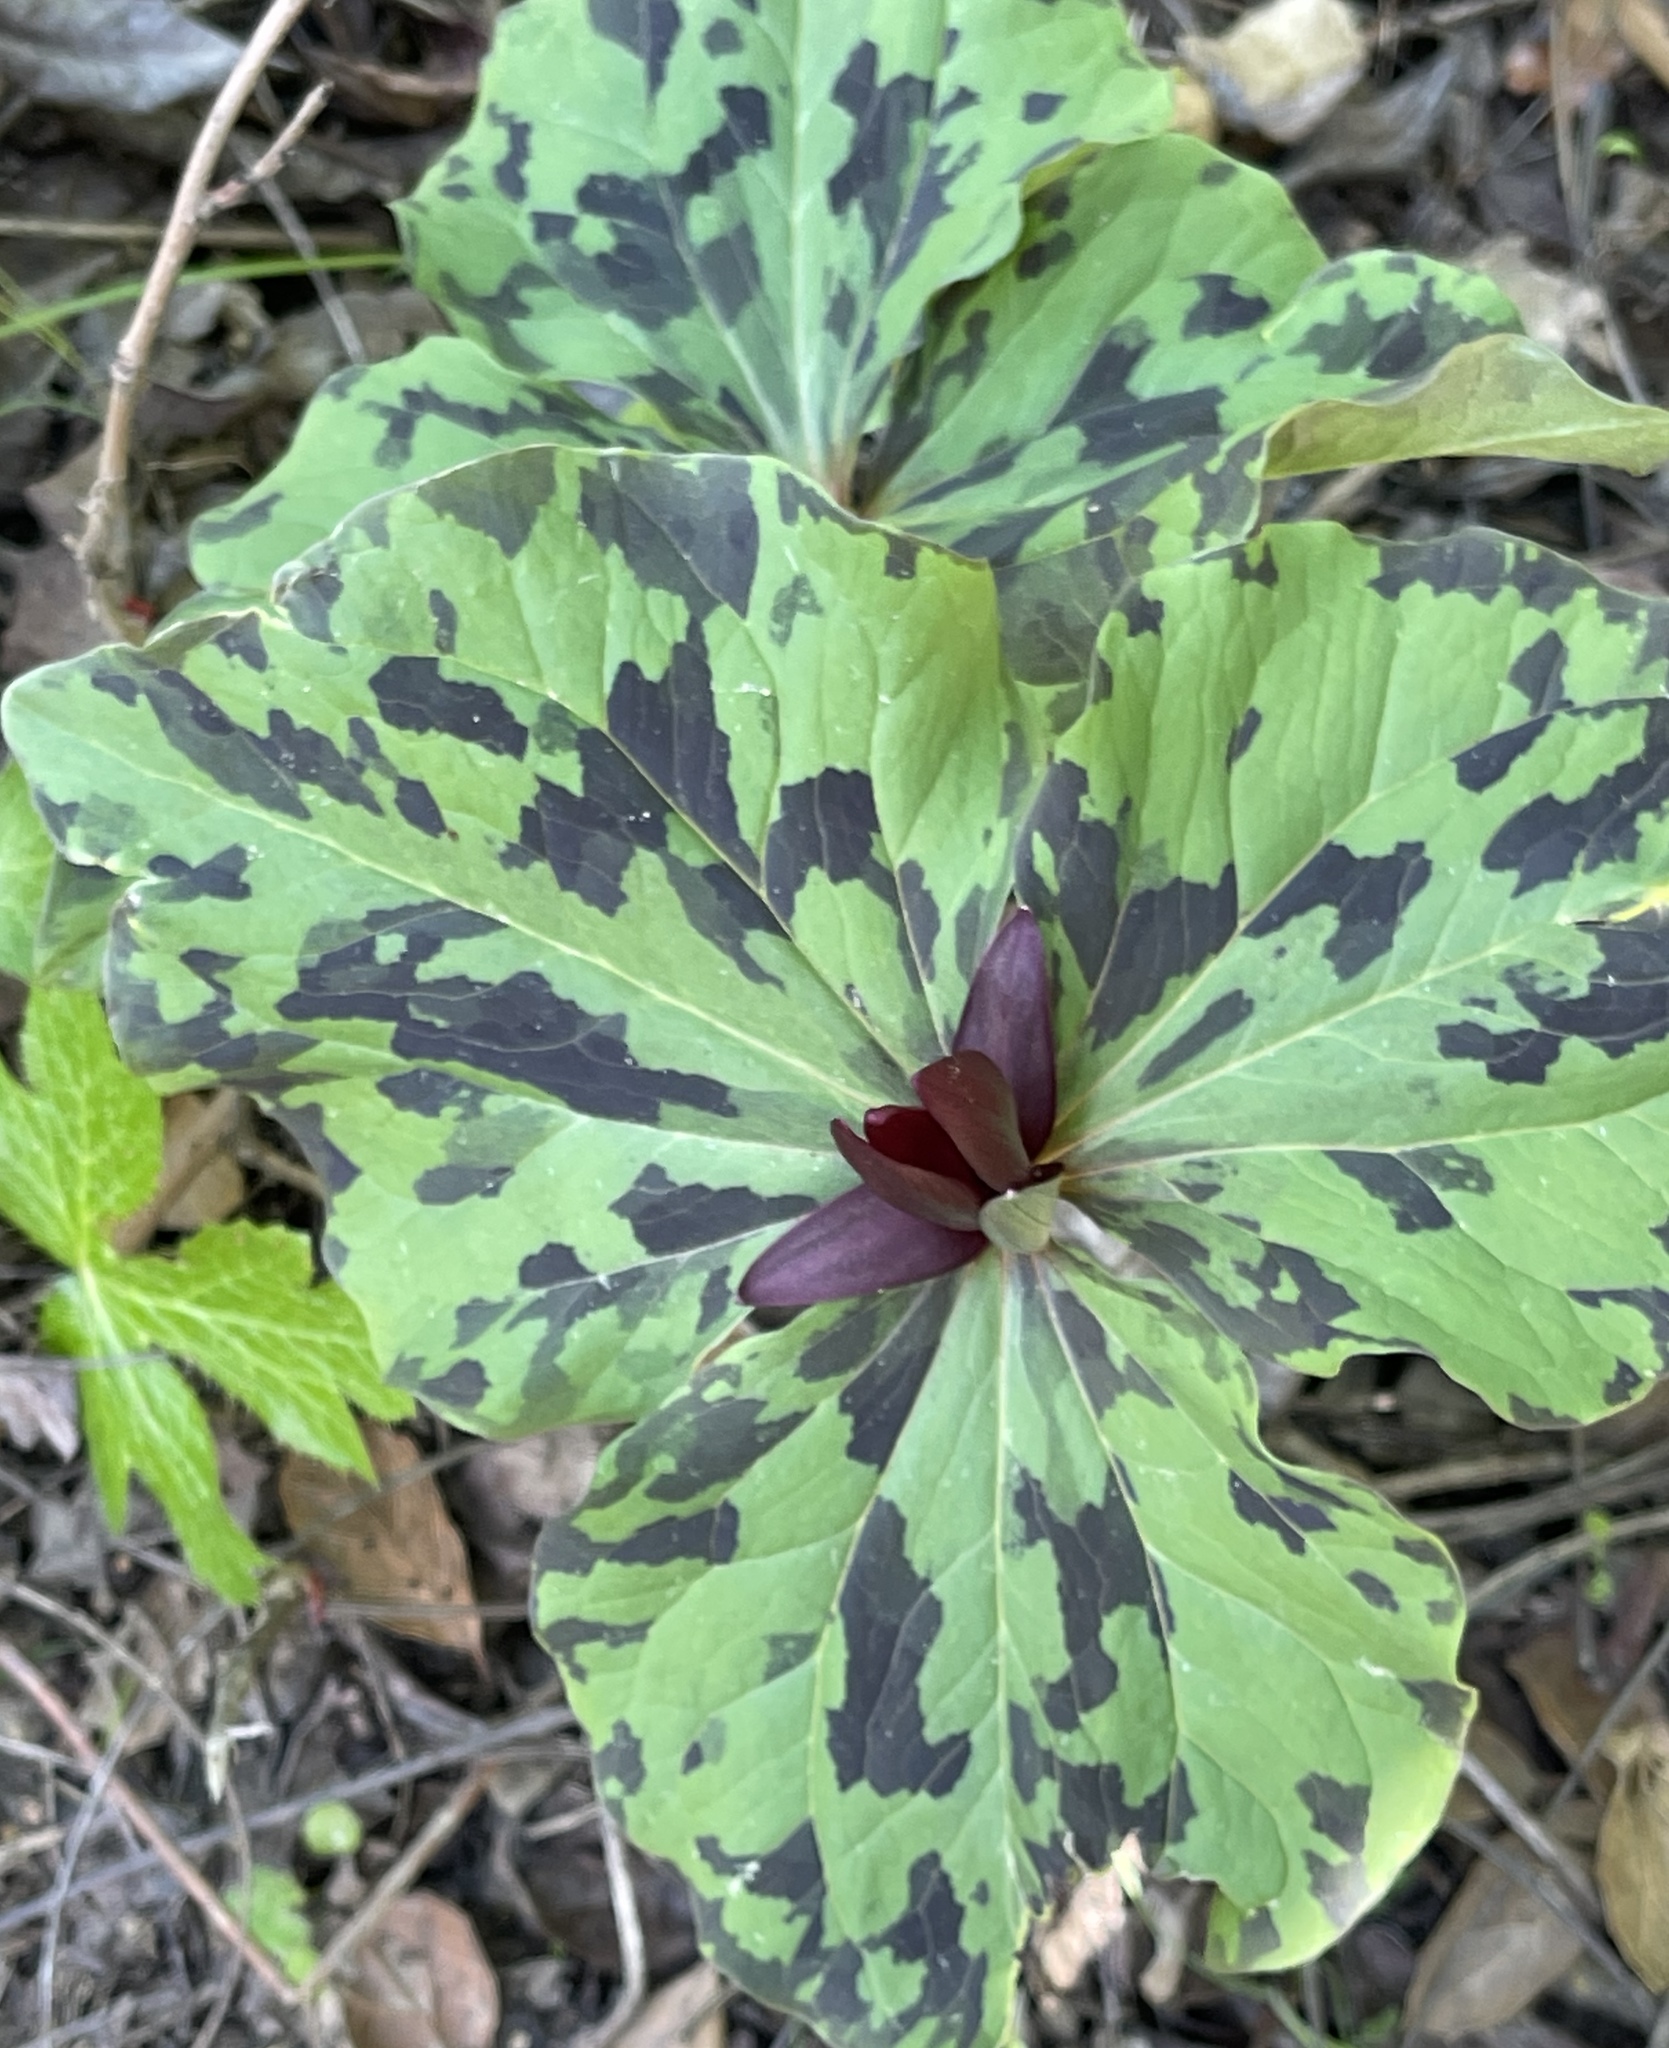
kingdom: Plantae
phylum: Tracheophyta
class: Liliopsida
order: Liliales
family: Melanthiaceae
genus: Trillium
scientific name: Trillium chloropetalum
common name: Giant trillium
